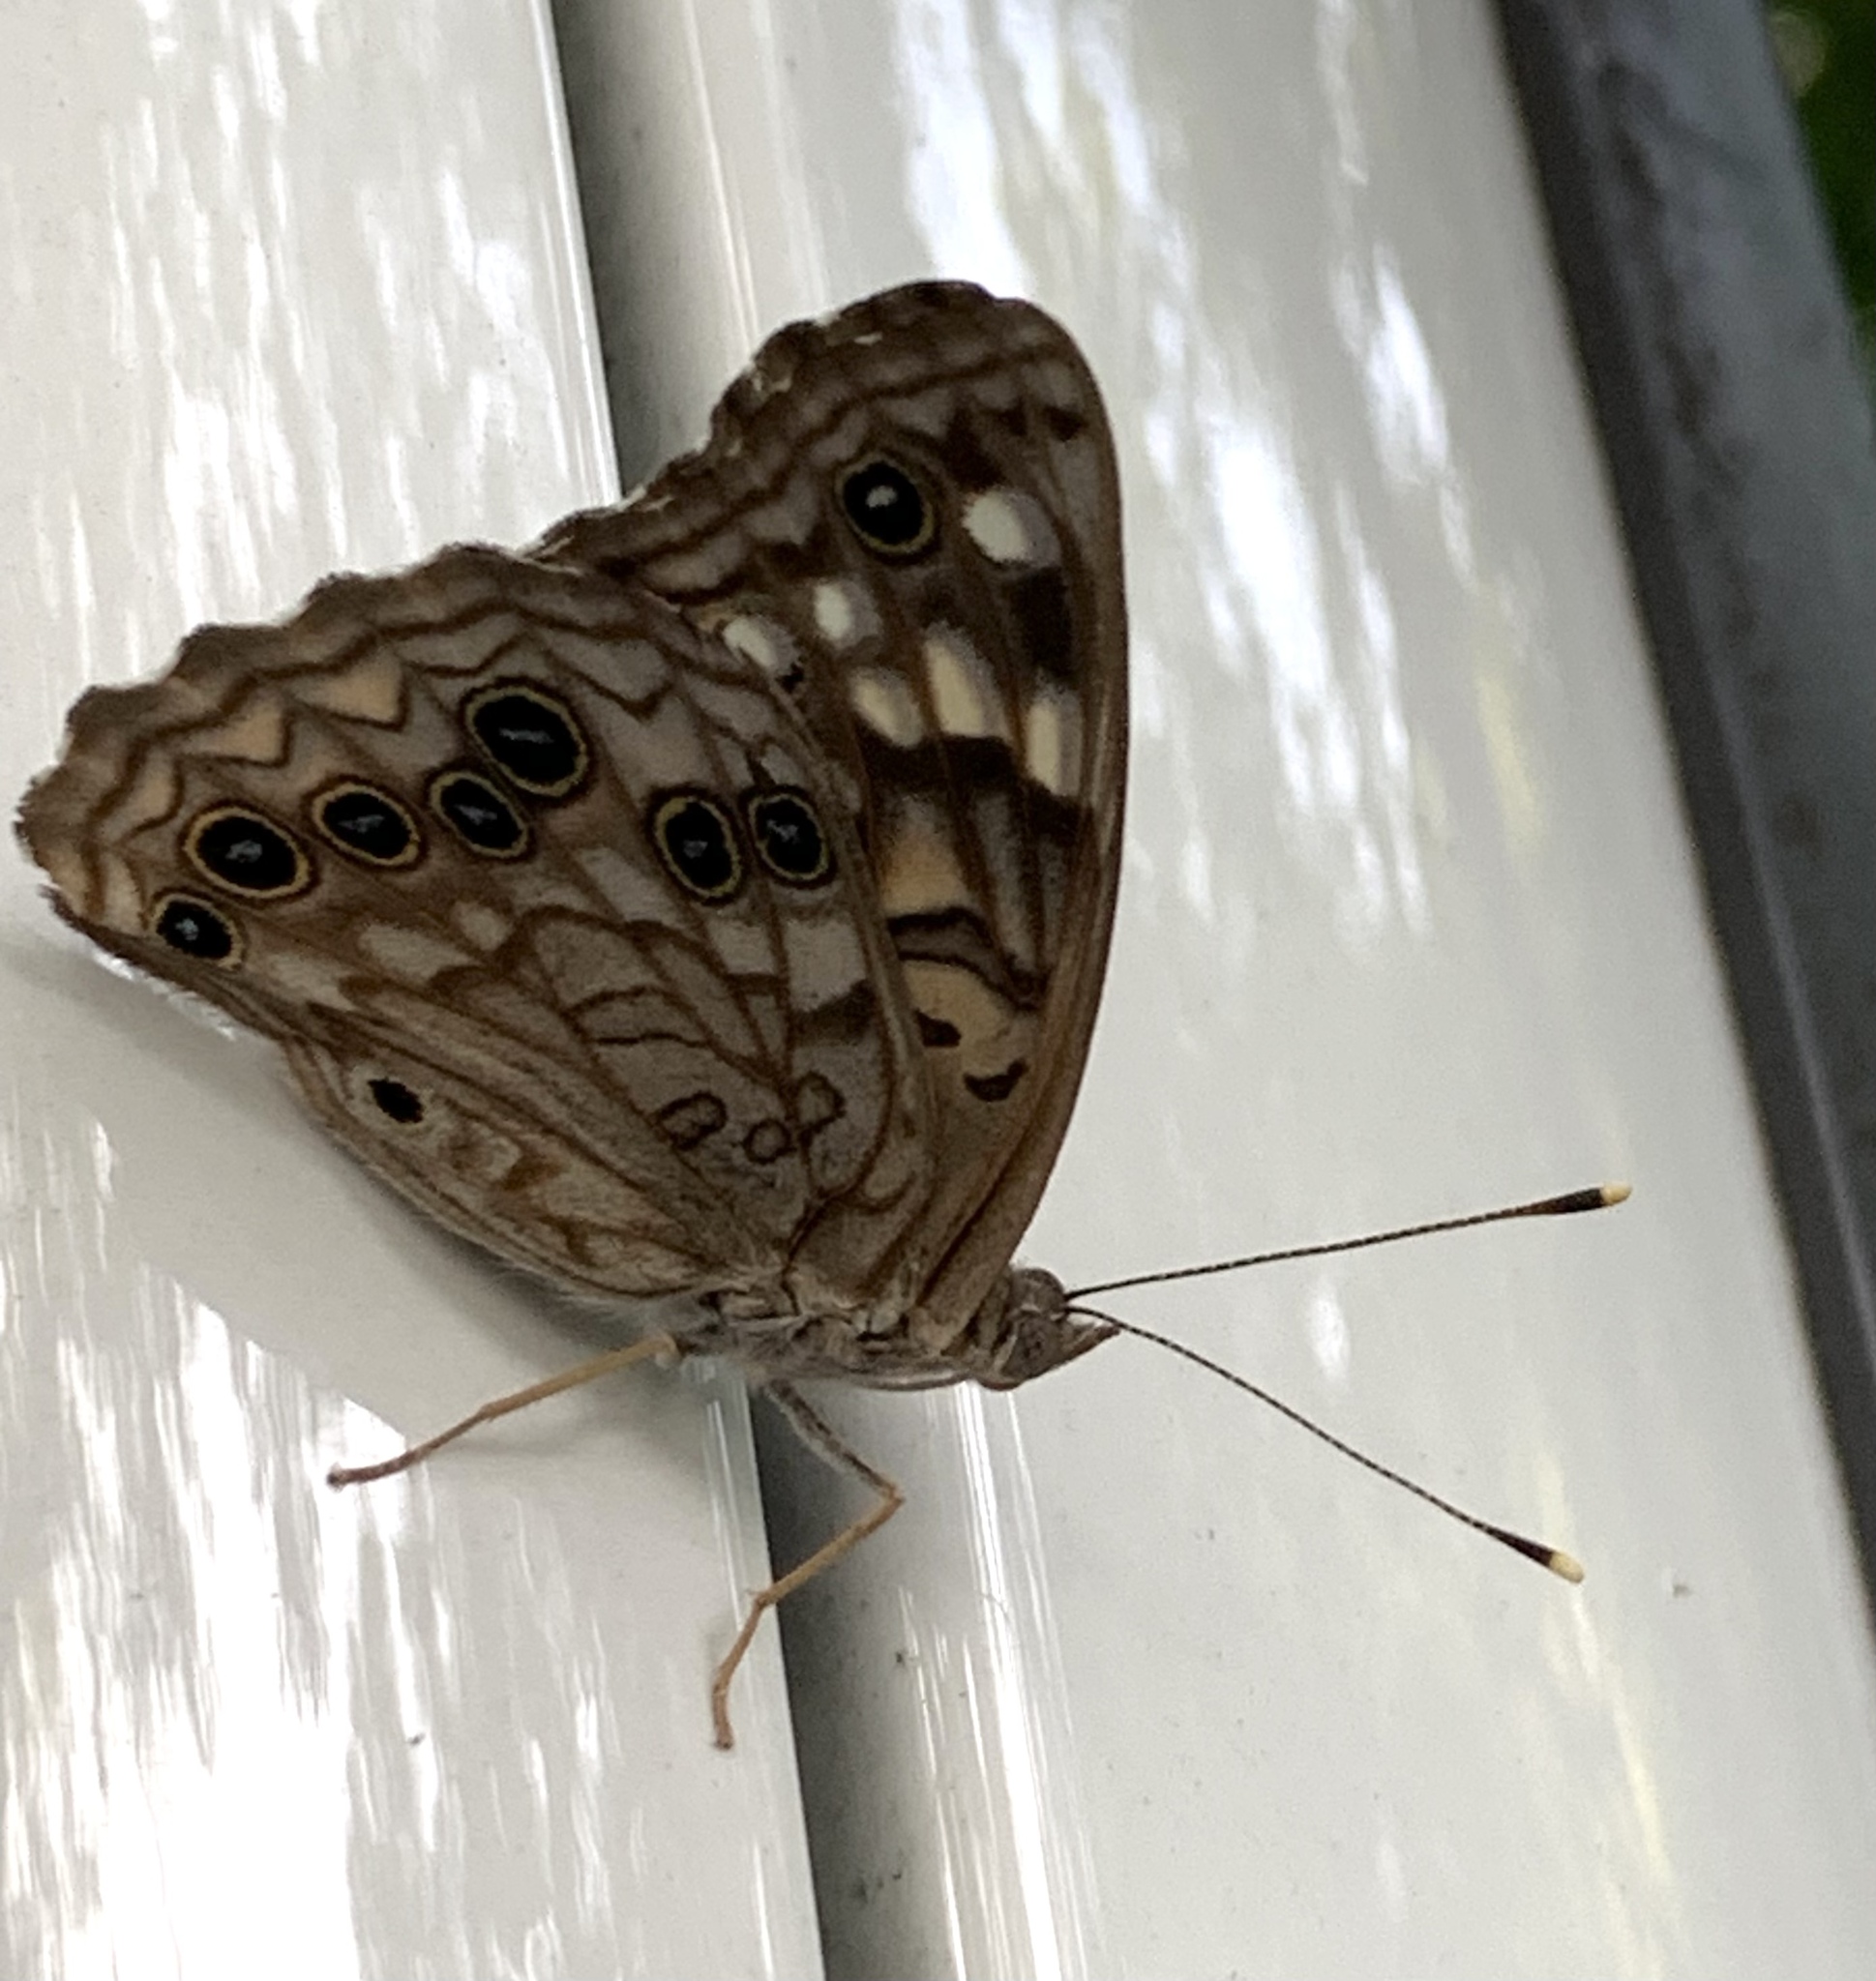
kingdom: Animalia
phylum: Arthropoda
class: Insecta
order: Lepidoptera
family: Nymphalidae
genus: Asterocampa
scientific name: Asterocampa celtis
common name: Hackberry emperor
